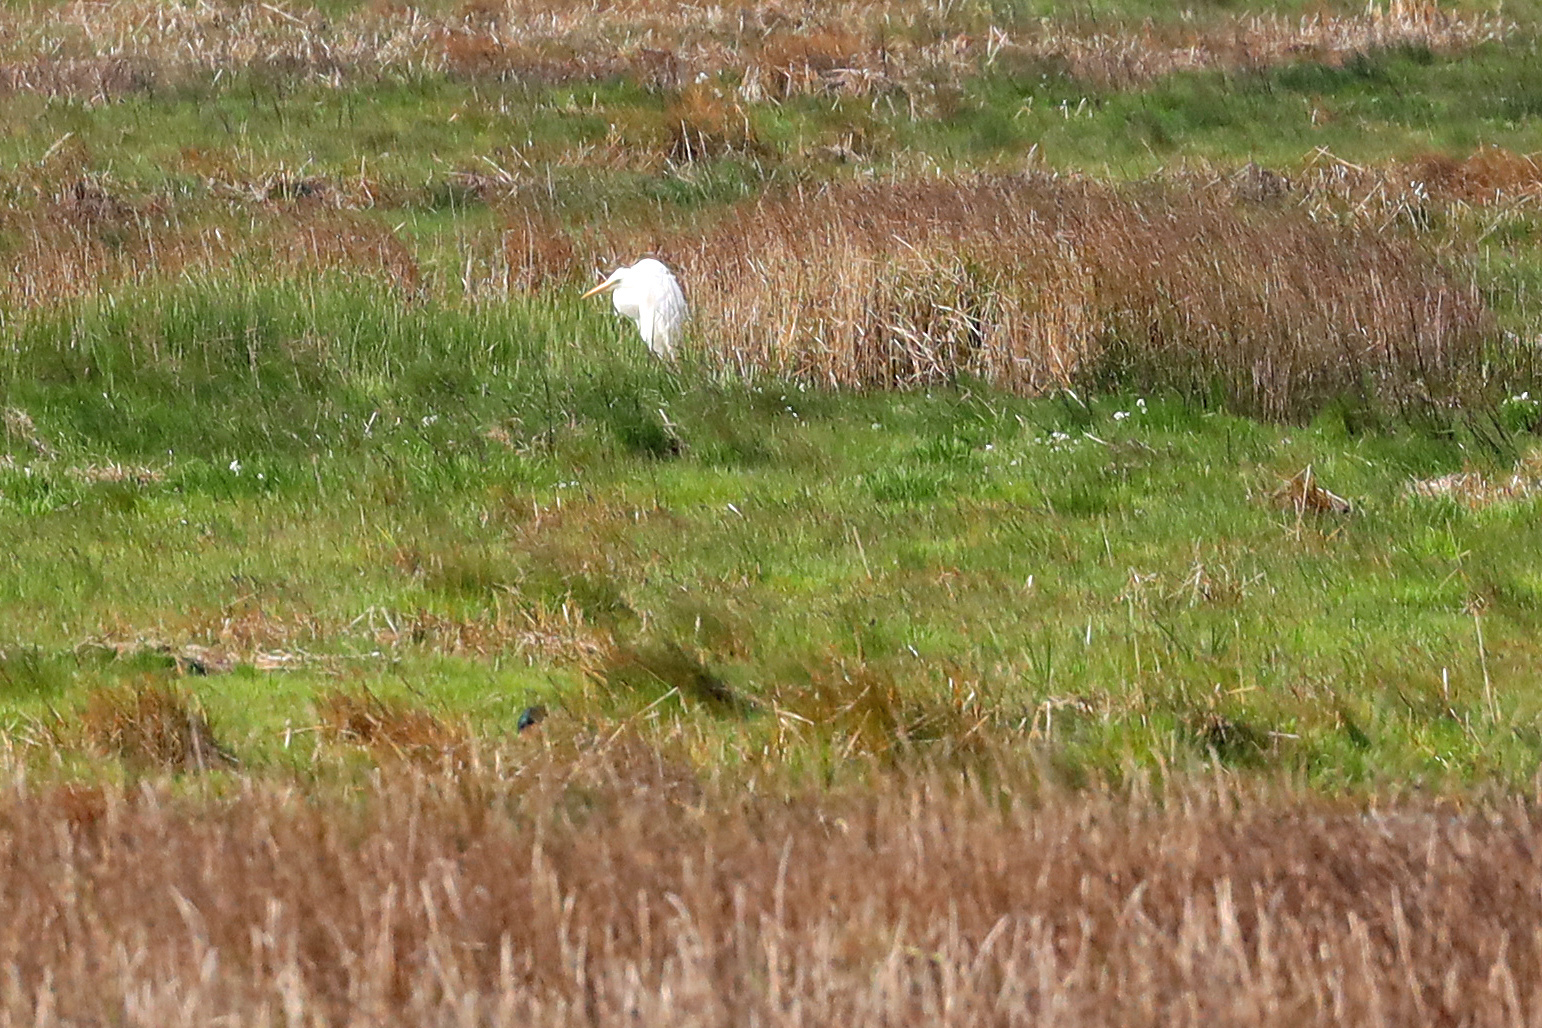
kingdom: Animalia
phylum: Chordata
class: Aves
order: Pelecaniformes
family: Ardeidae
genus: Ardea
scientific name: Ardea alba
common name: Great egret
